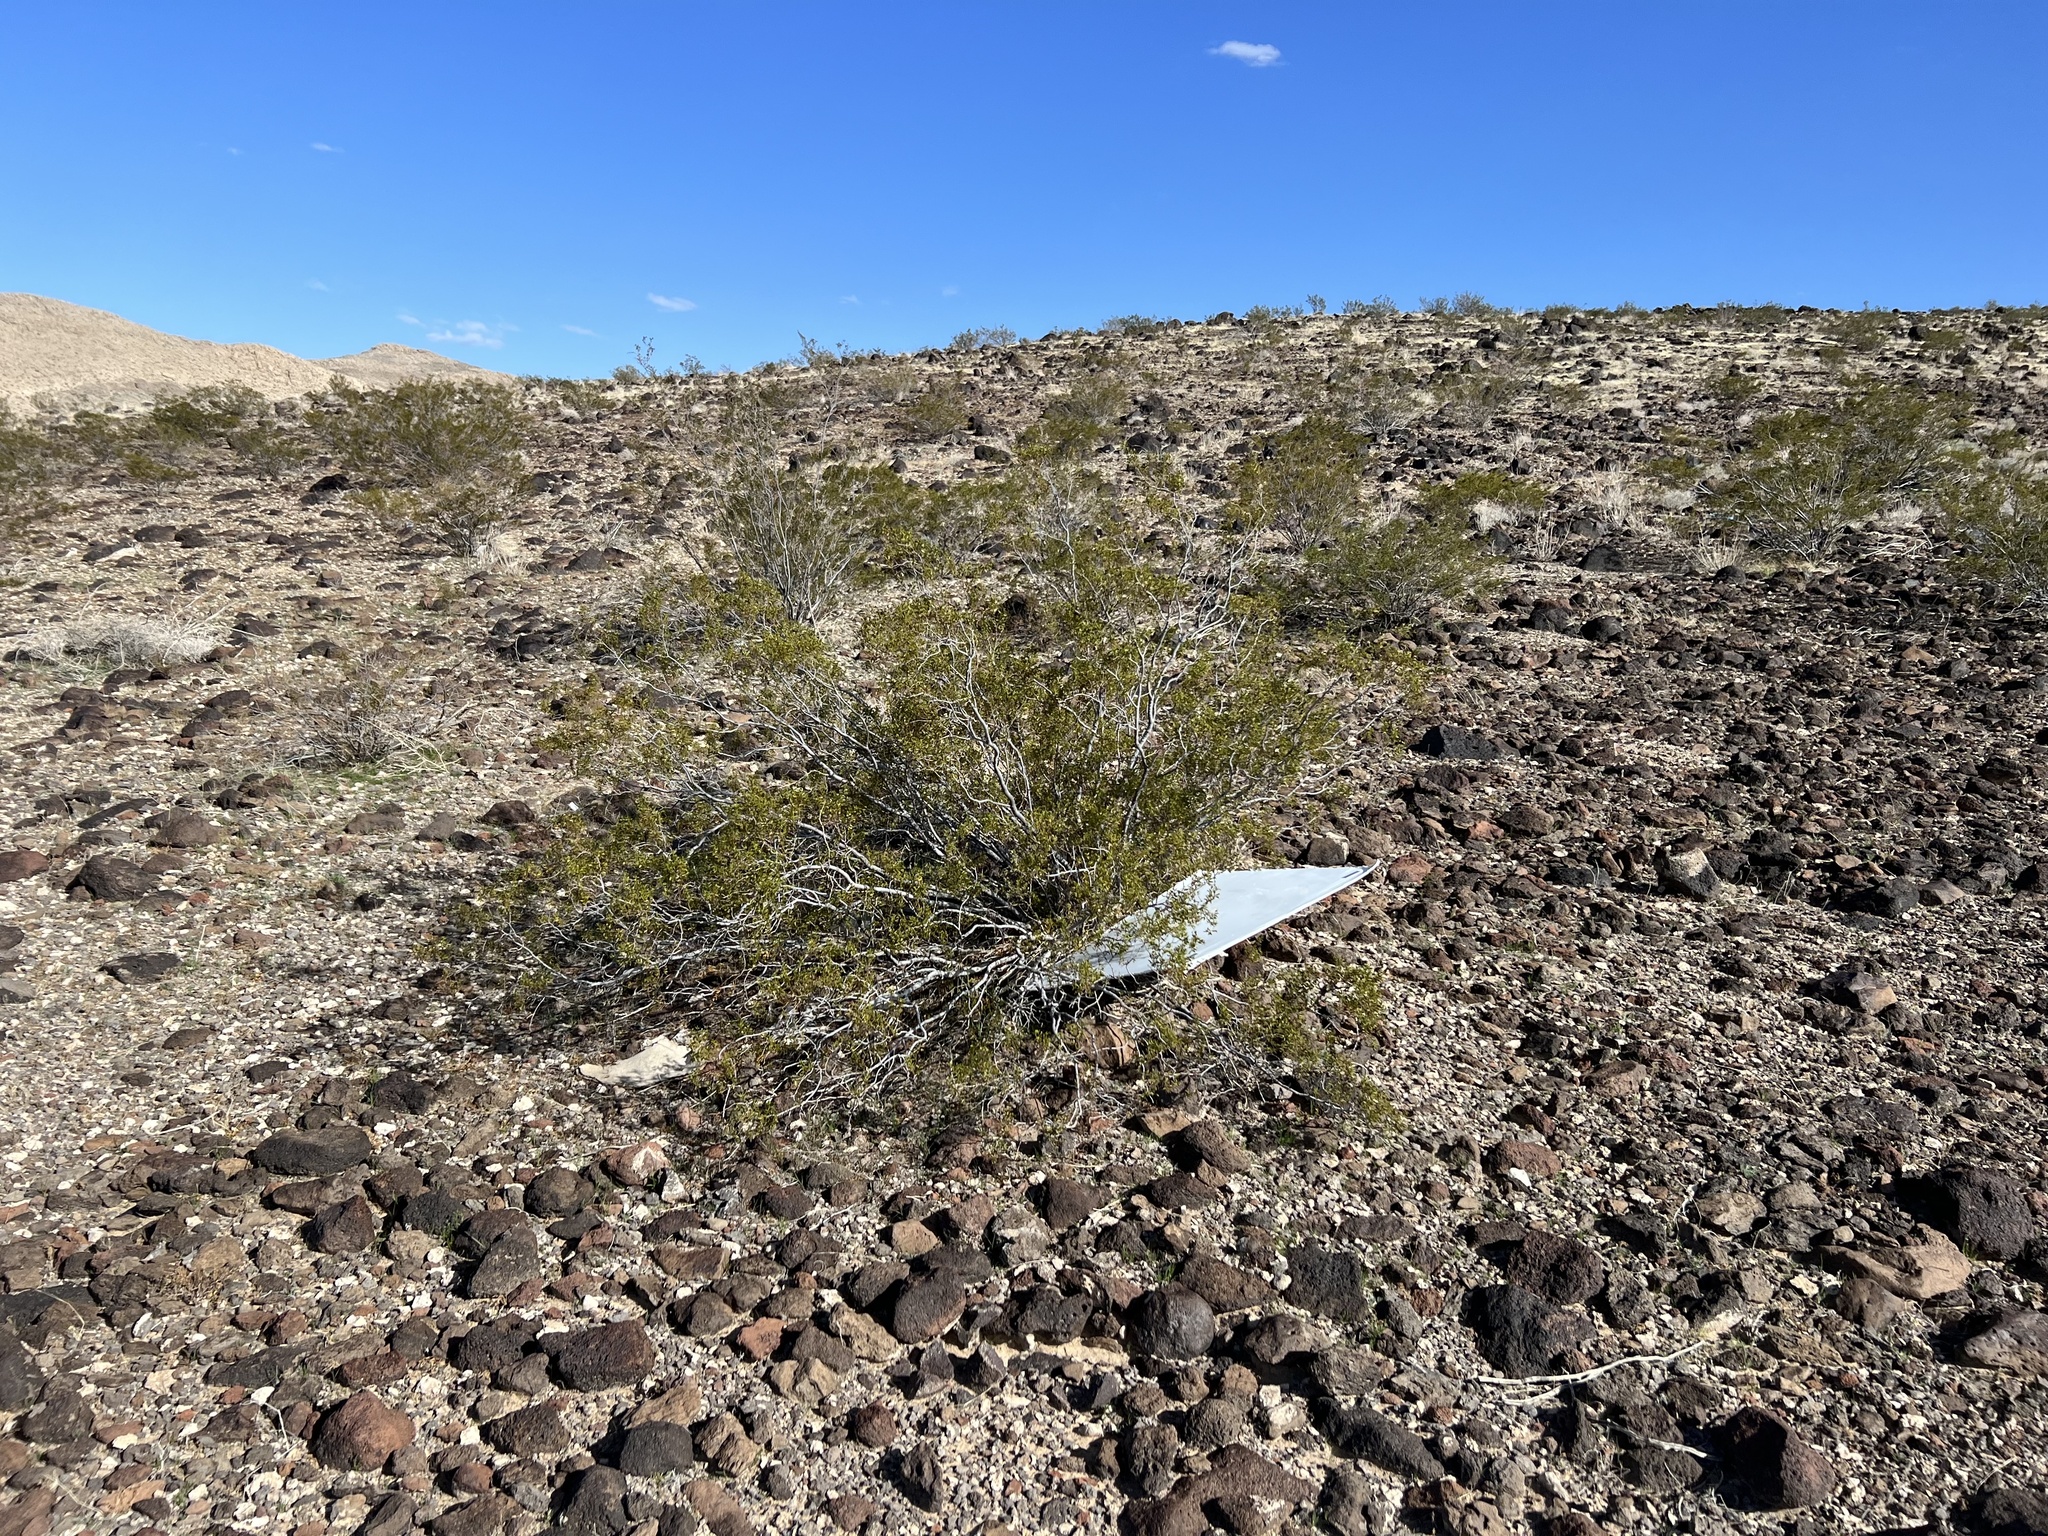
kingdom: Plantae
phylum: Tracheophyta
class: Magnoliopsida
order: Zygophyllales
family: Zygophyllaceae
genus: Larrea
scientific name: Larrea tridentata
